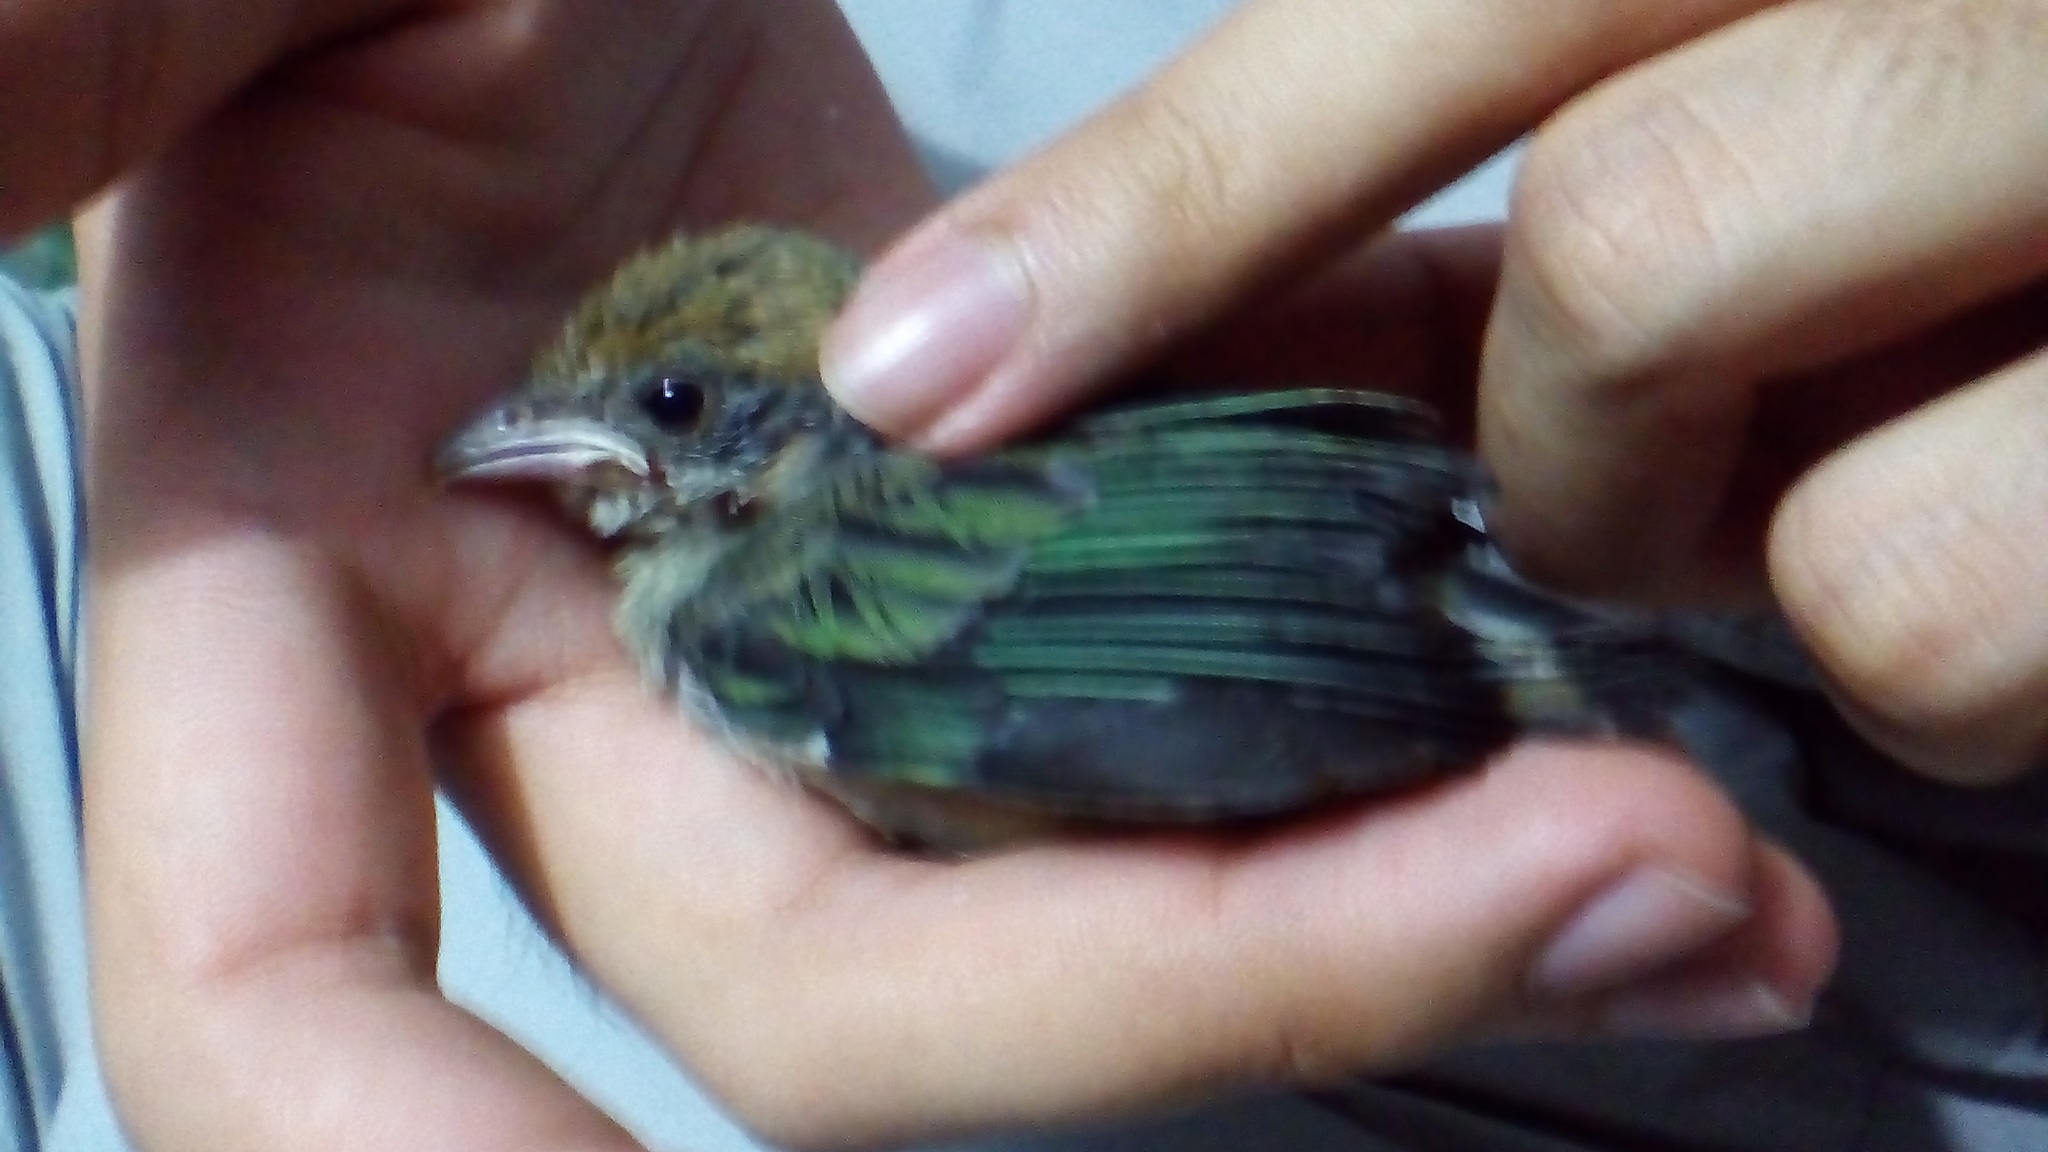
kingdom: Animalia
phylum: Chordata
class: Aves
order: Passeriformes
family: Thraupidae
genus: Stilpnia
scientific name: Stilpnia vitriolina
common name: Scrub tanager
